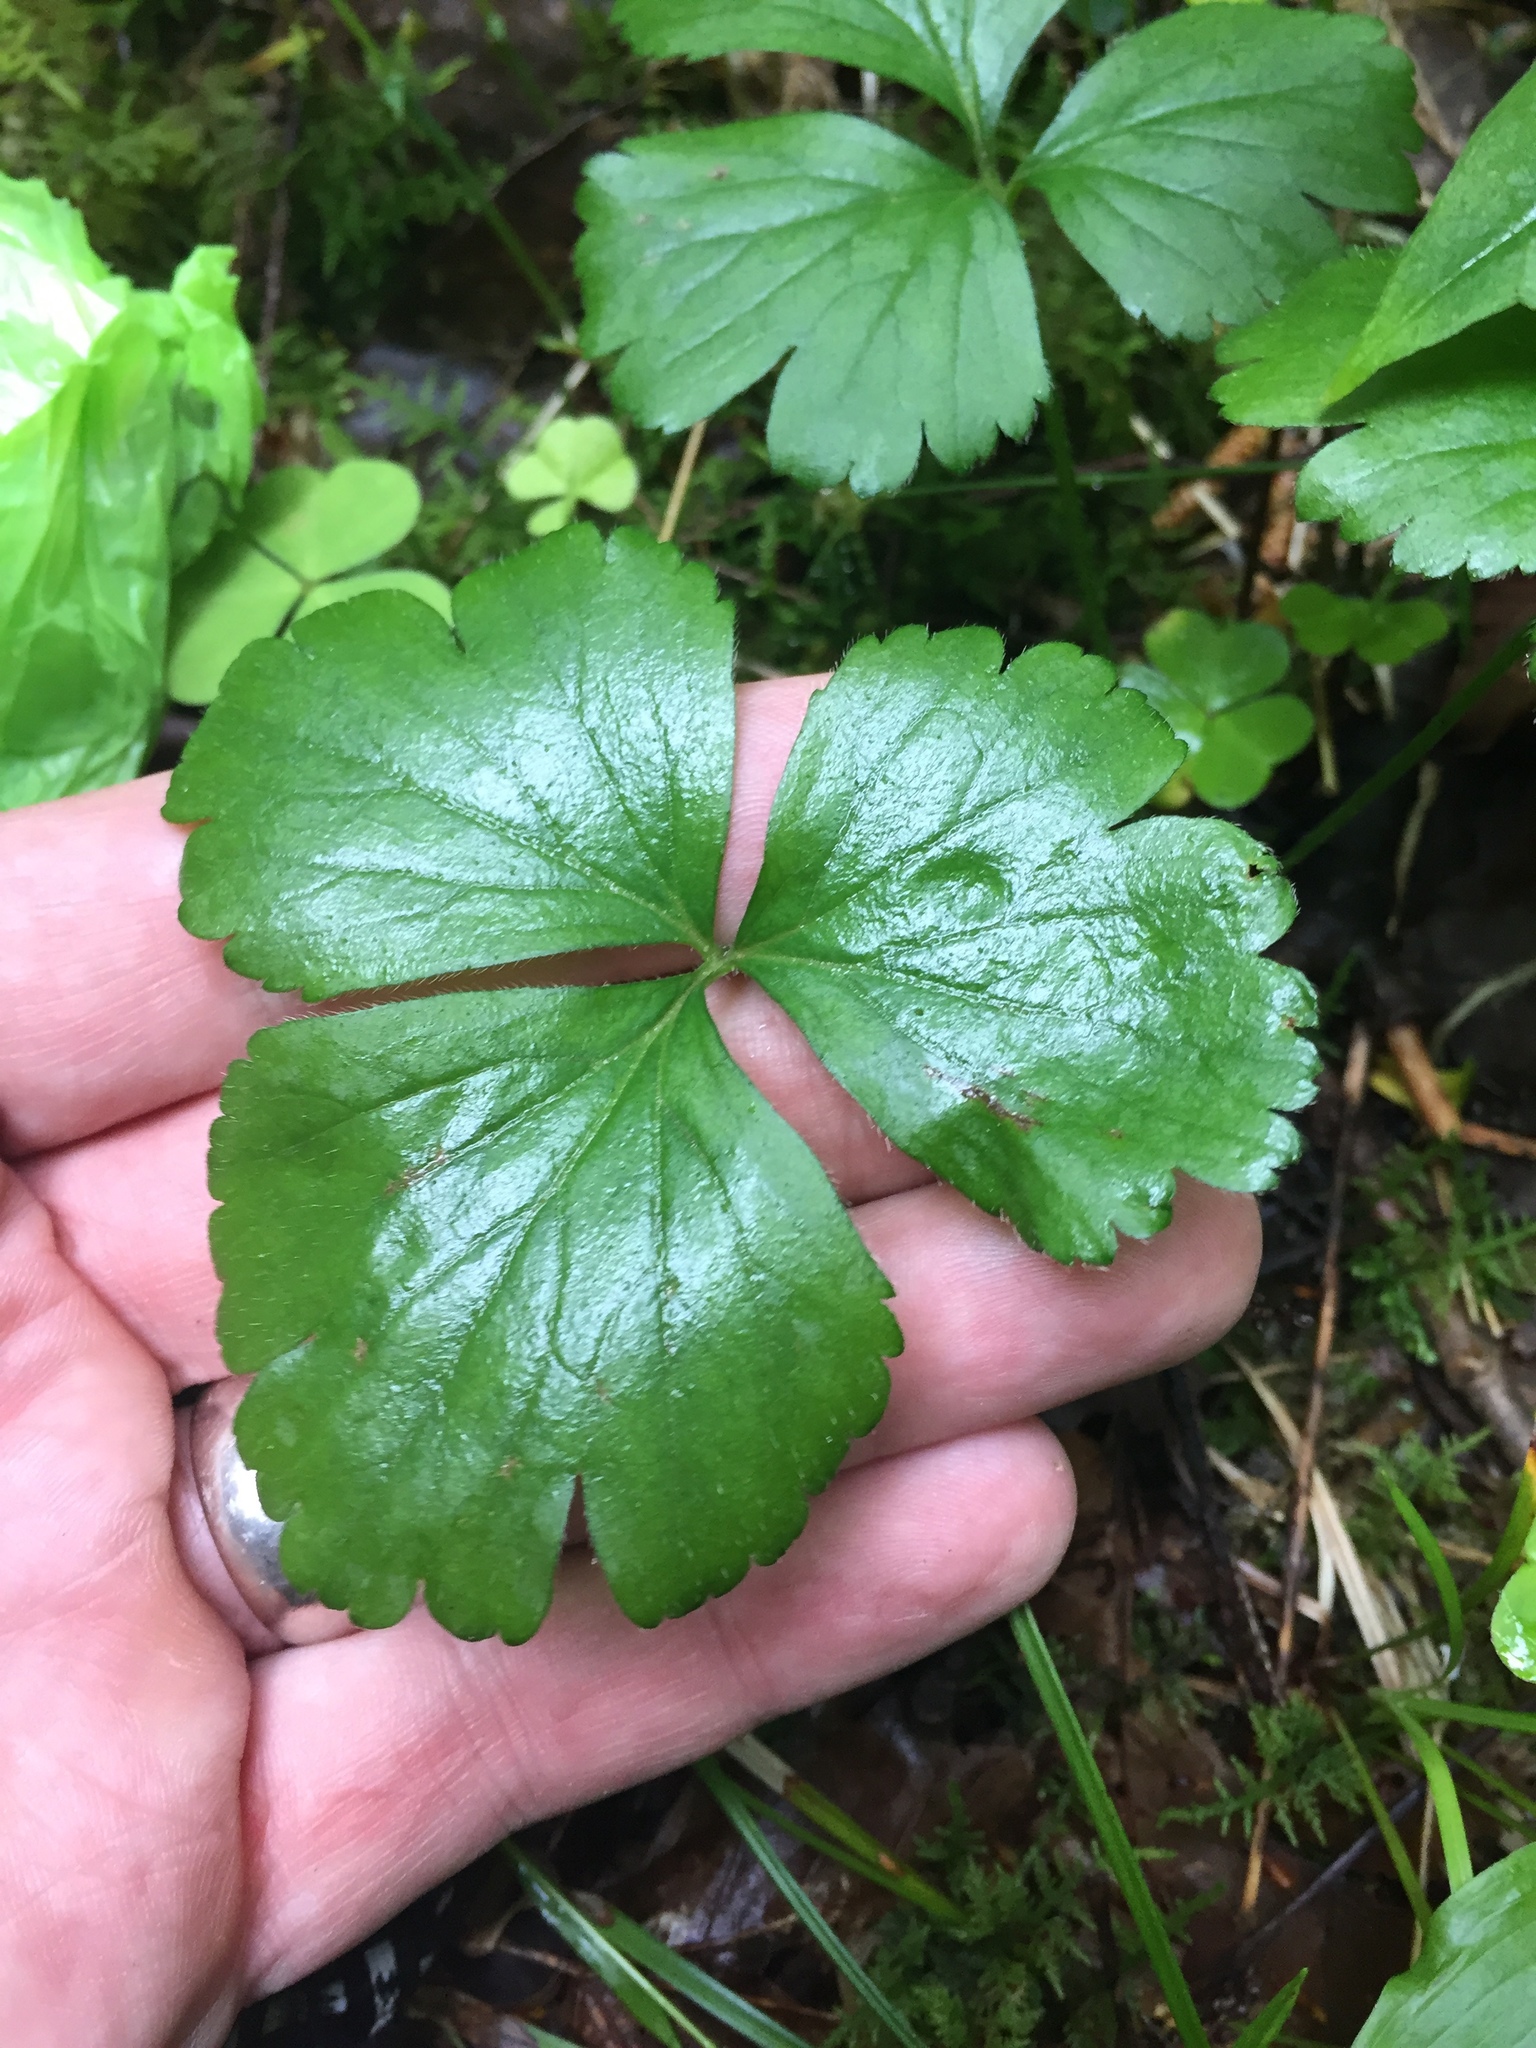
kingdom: Plantae
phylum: Tracheophyta
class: Magnoliopsida
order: Ranunculales
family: Ranunculaceae
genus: Coptis
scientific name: Coptis trifolia
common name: Canker-root
